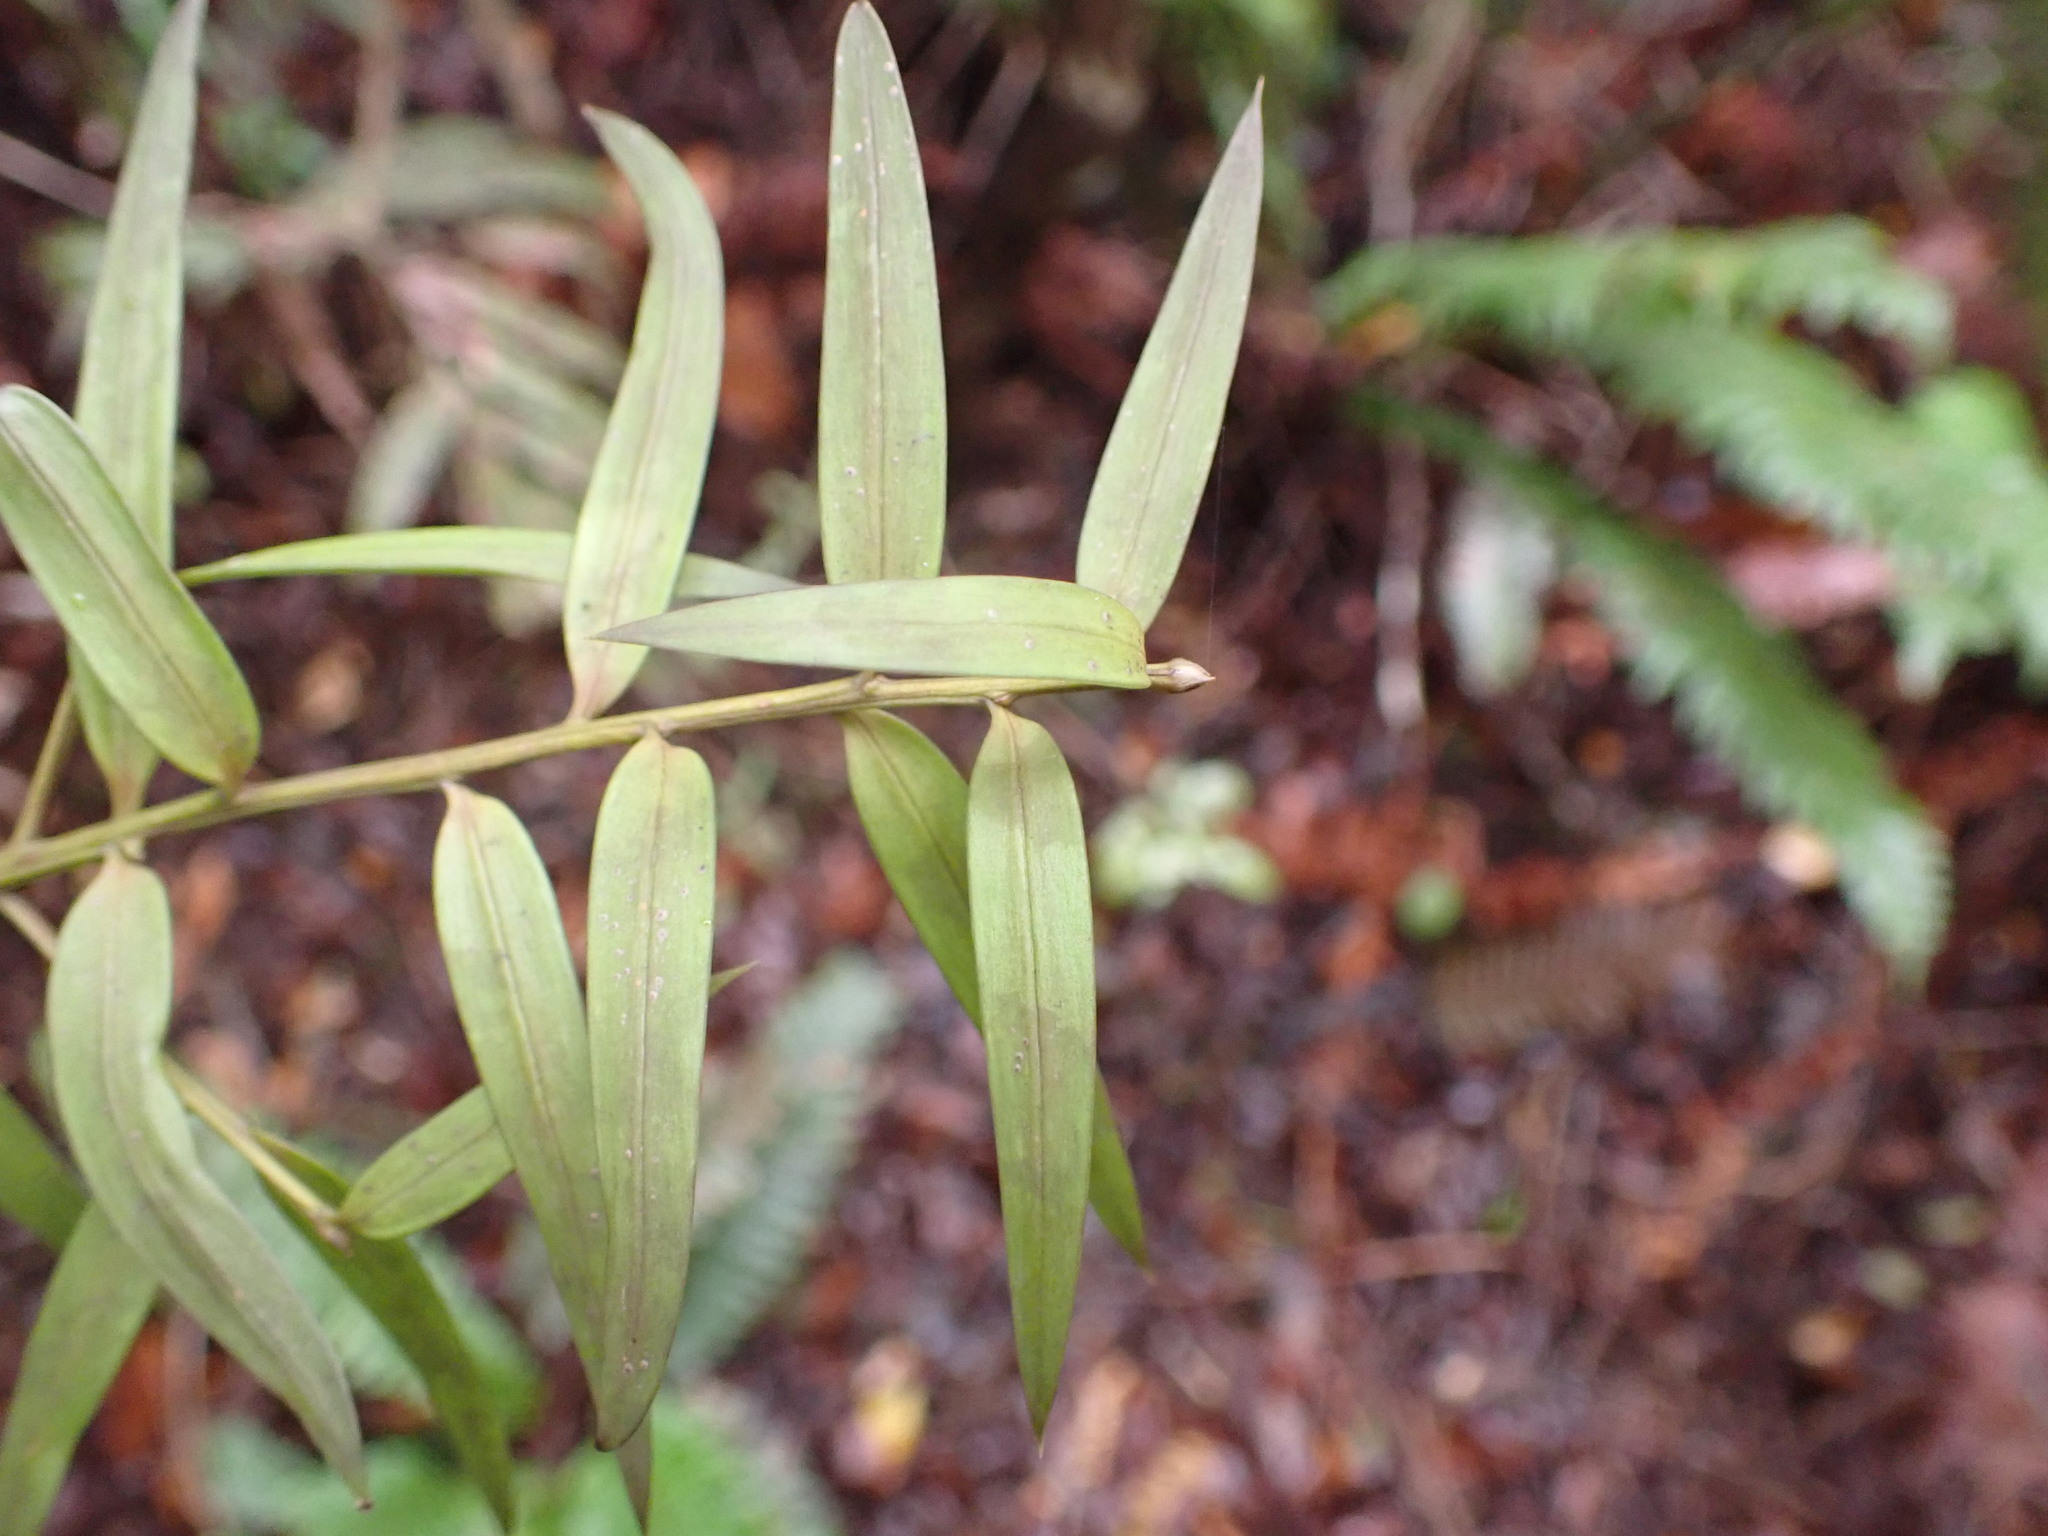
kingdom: Plantae
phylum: Tracheophyta
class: Pinopsida
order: Pinales
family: Podocarpaceae
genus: Podocarpus
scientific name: Podocarpus laetus
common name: Hall's totara
